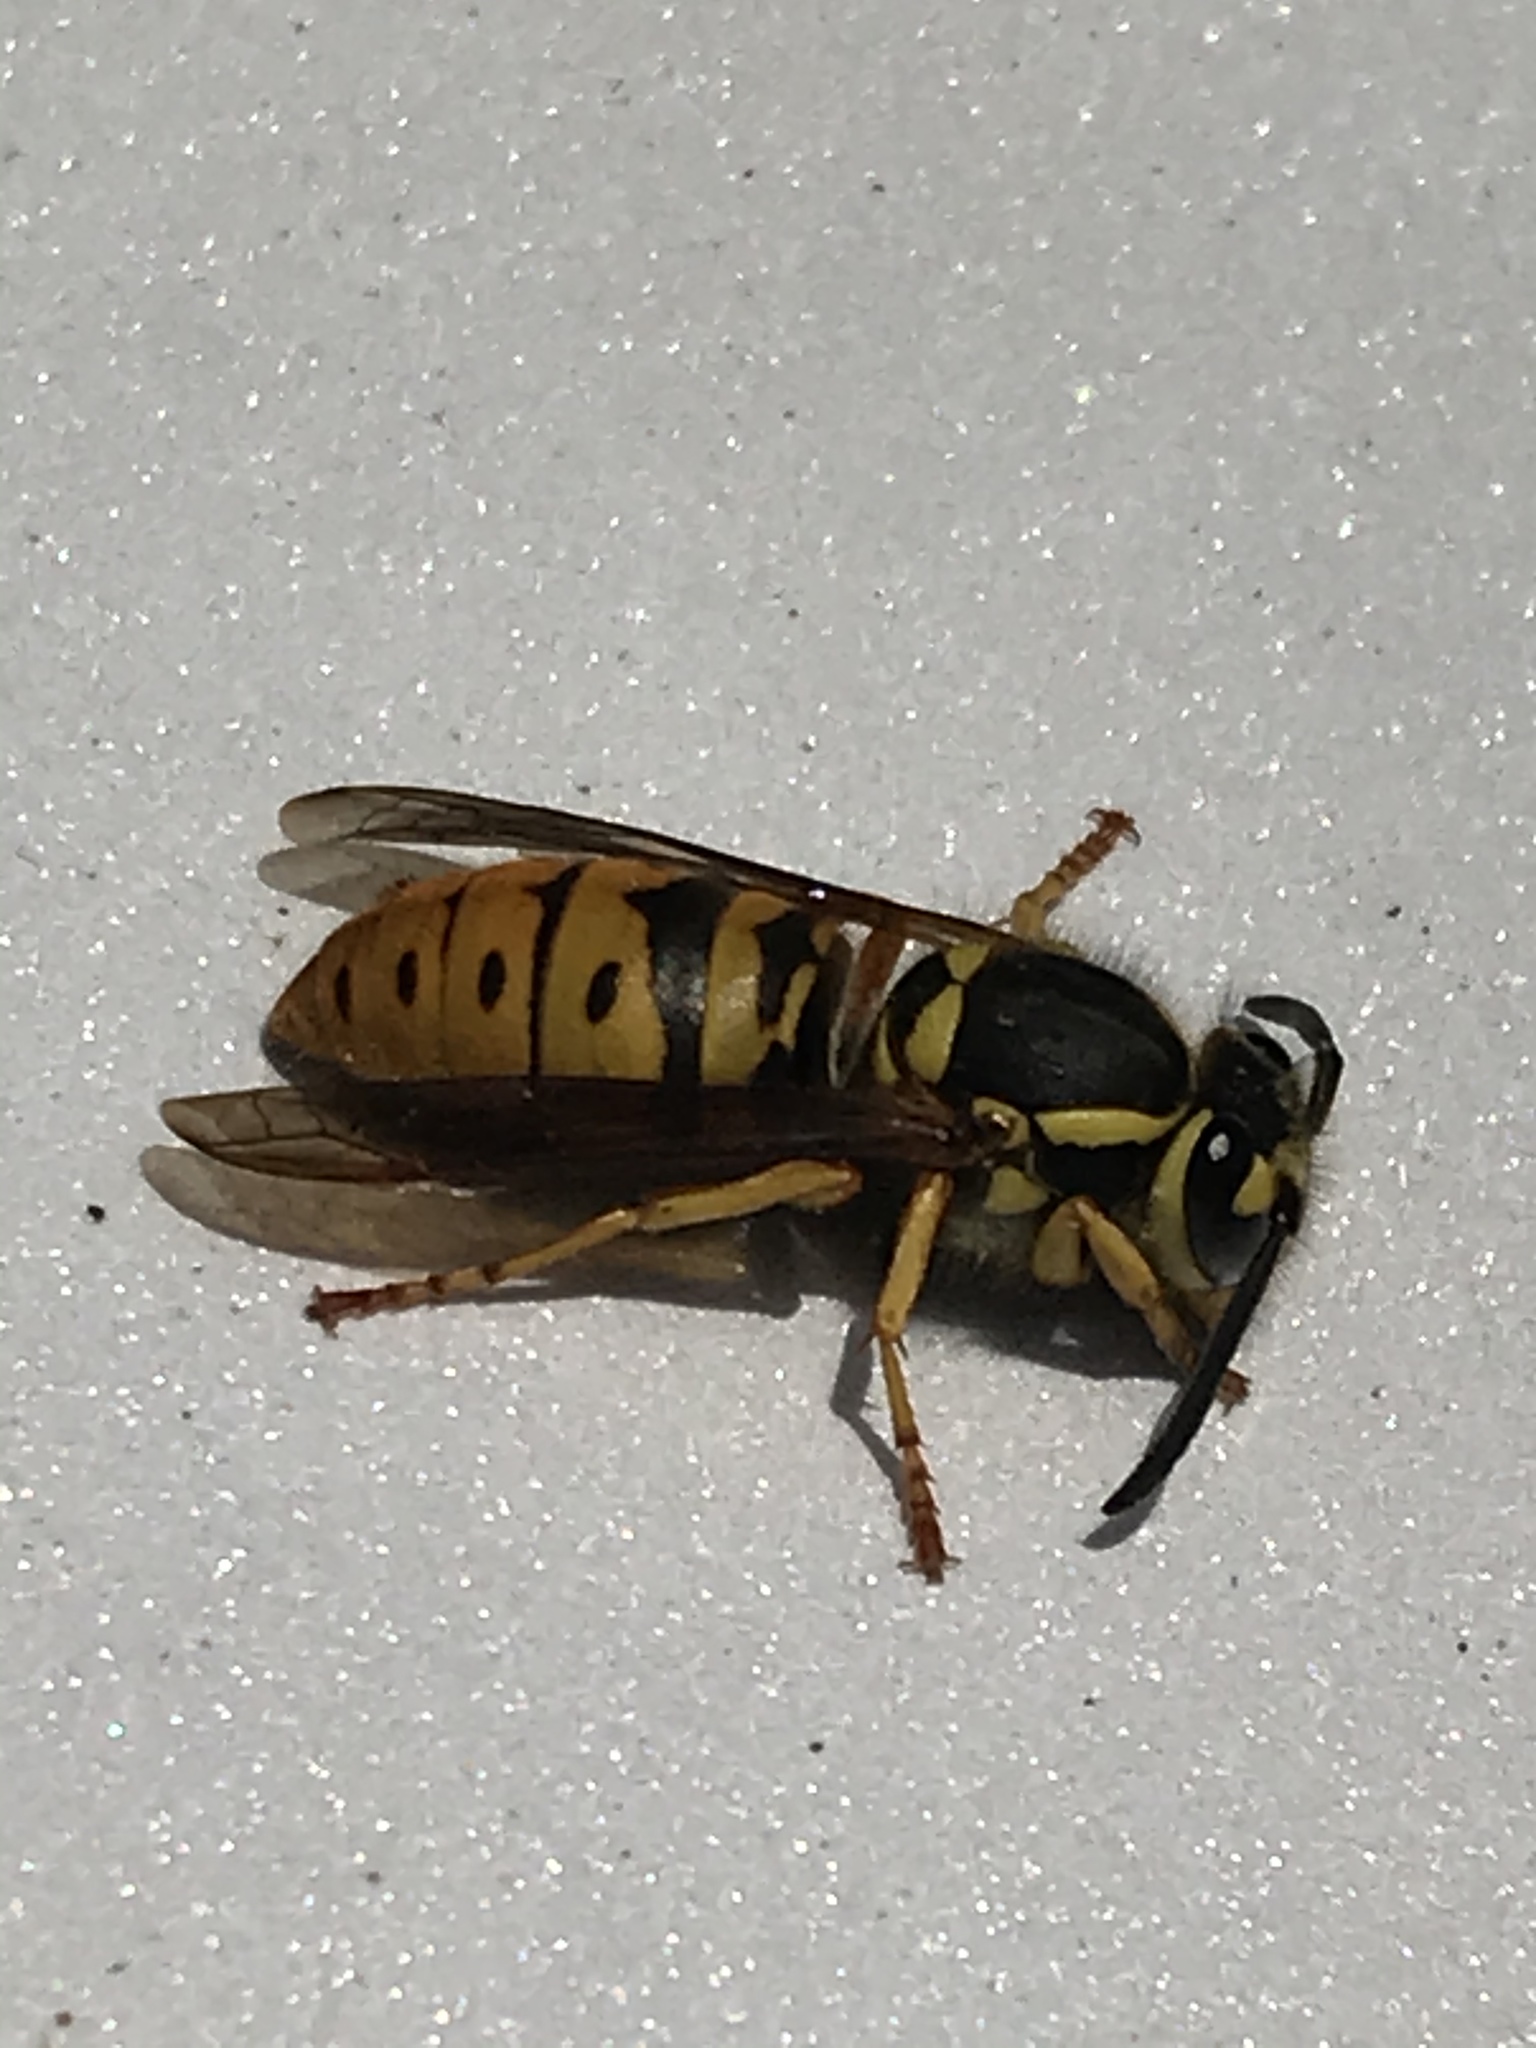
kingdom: Animalia
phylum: Arthropoda
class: Insecta
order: Hymenoptera
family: Vespidae
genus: Vespula
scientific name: Vespula maculifrons
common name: Eastern yellowjacket
